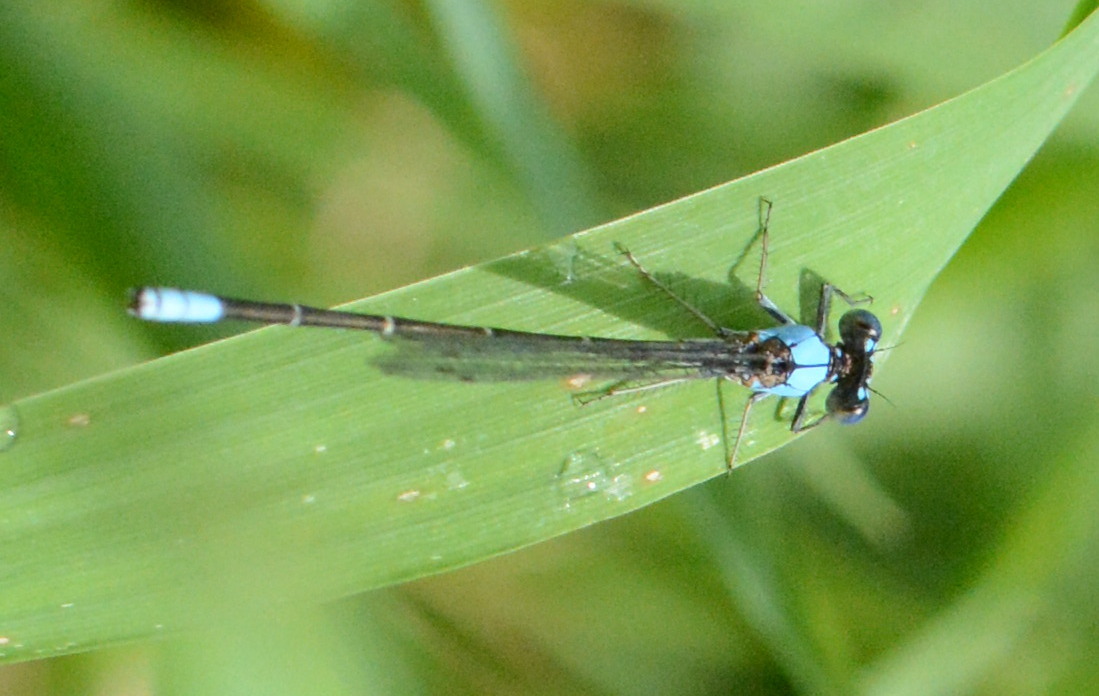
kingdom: Animalia
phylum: Arthropoda
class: Insecta
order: Odonata
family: Coenagrionidae
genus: Argia
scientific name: Argia apicalis
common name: Blue-fronted dancer
